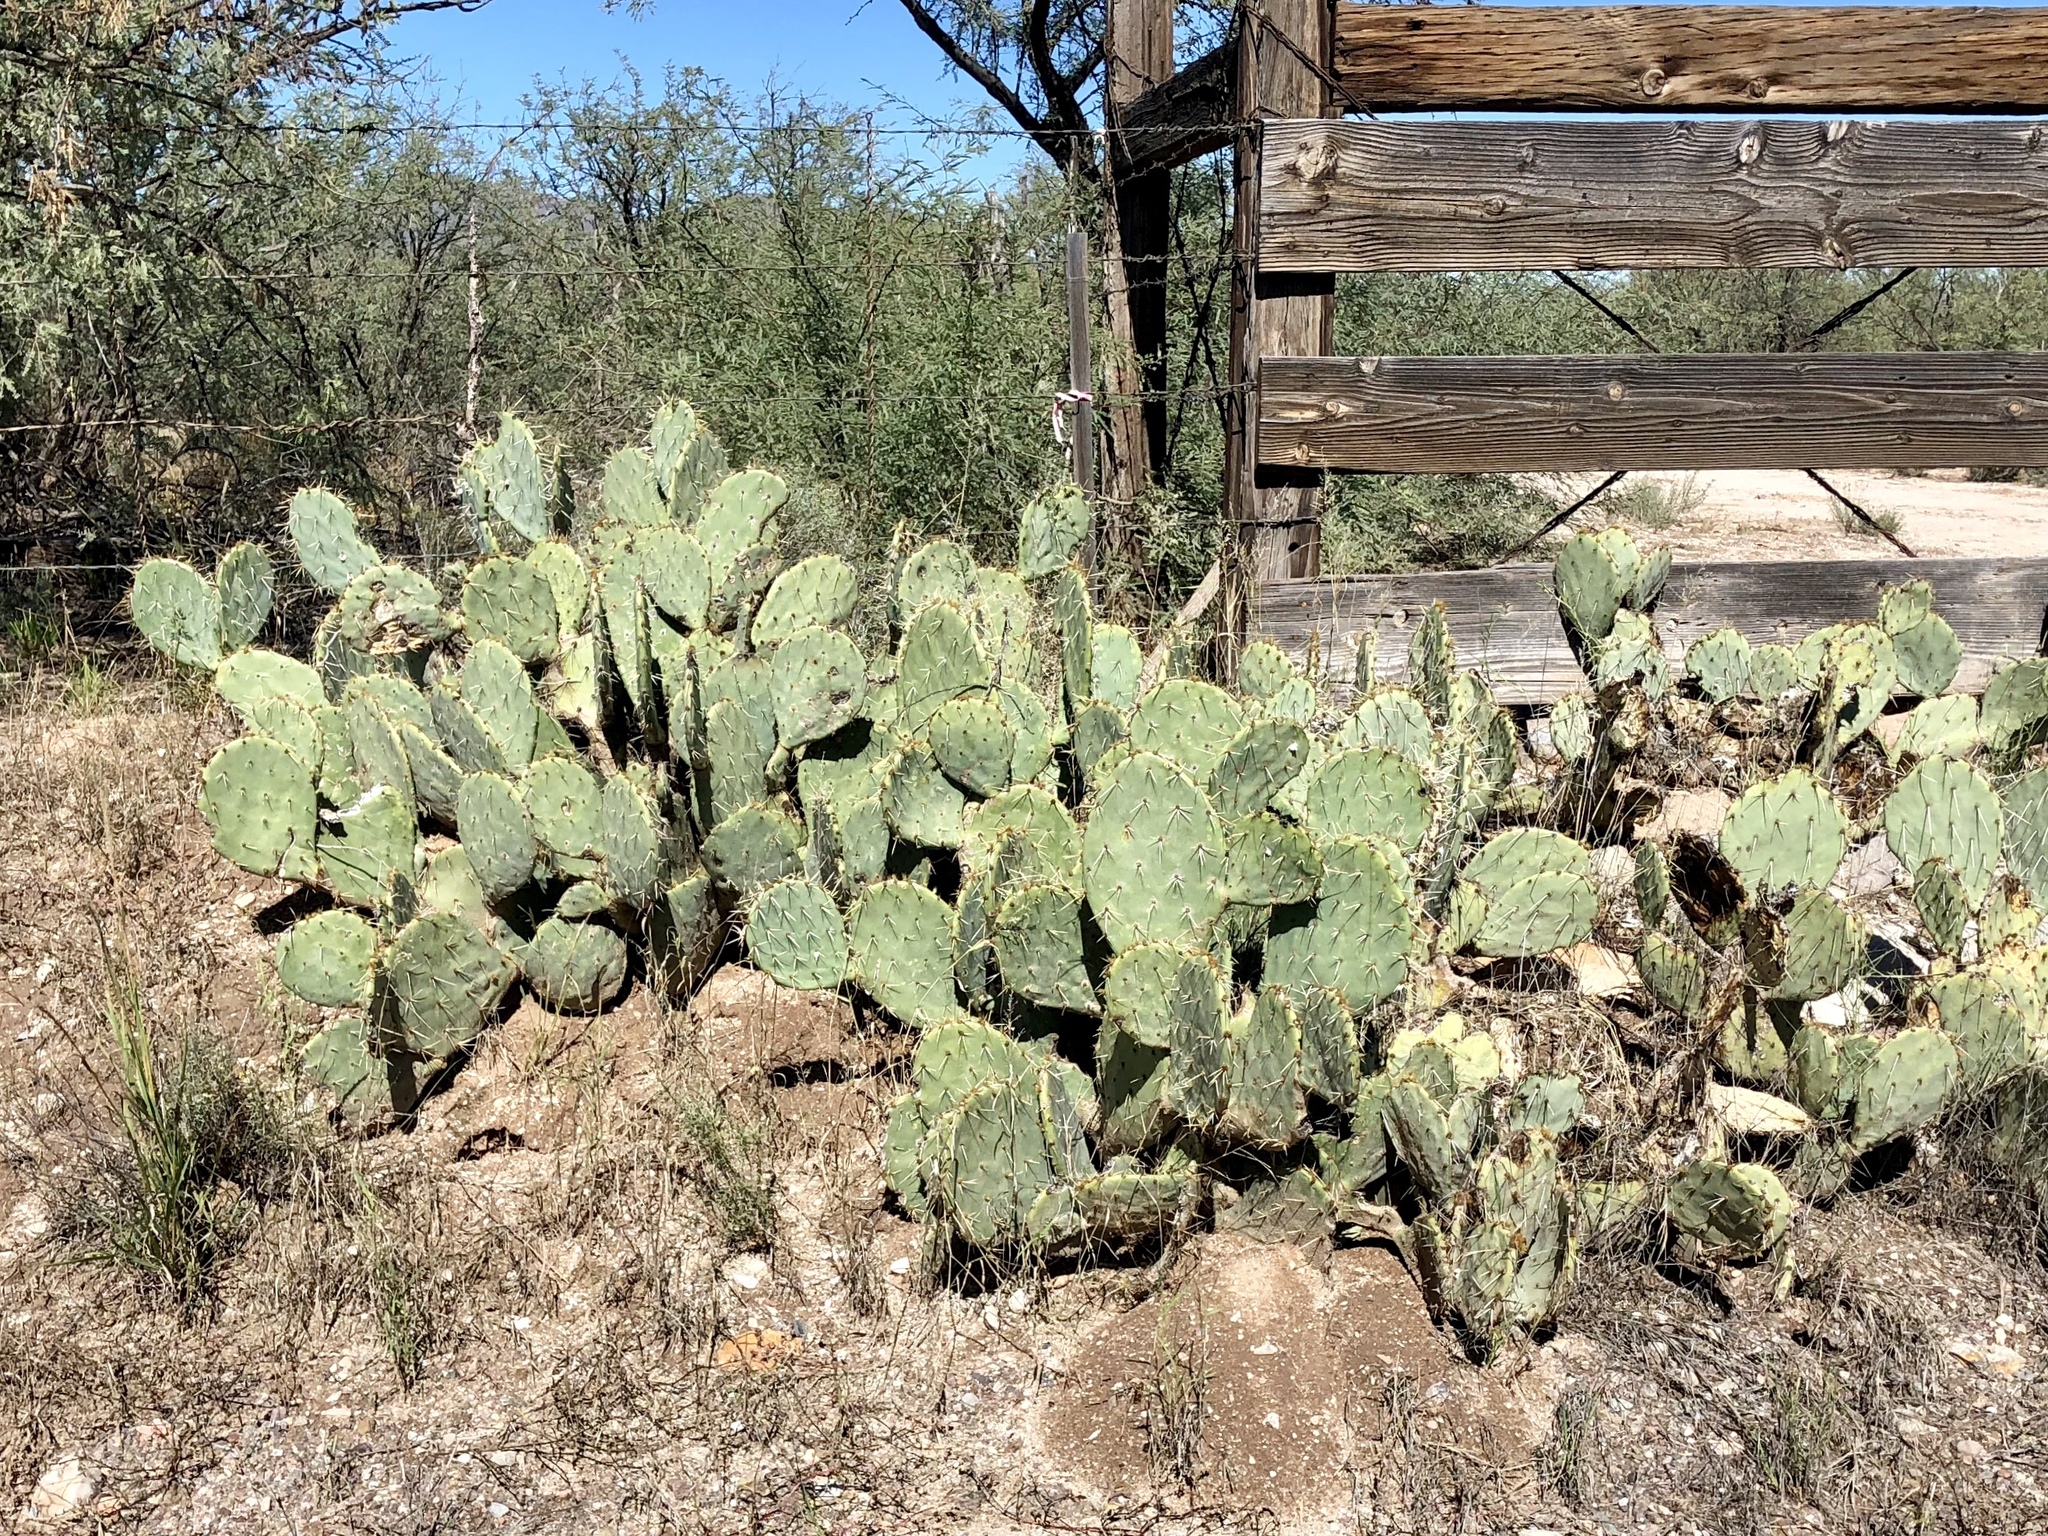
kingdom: Plantae
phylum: Tracheophyta
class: Magnoliopsida
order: Caryophyllales
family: Cactaceae
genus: Opuntia
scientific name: Opuntia engelmannii
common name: Cactus-apple
